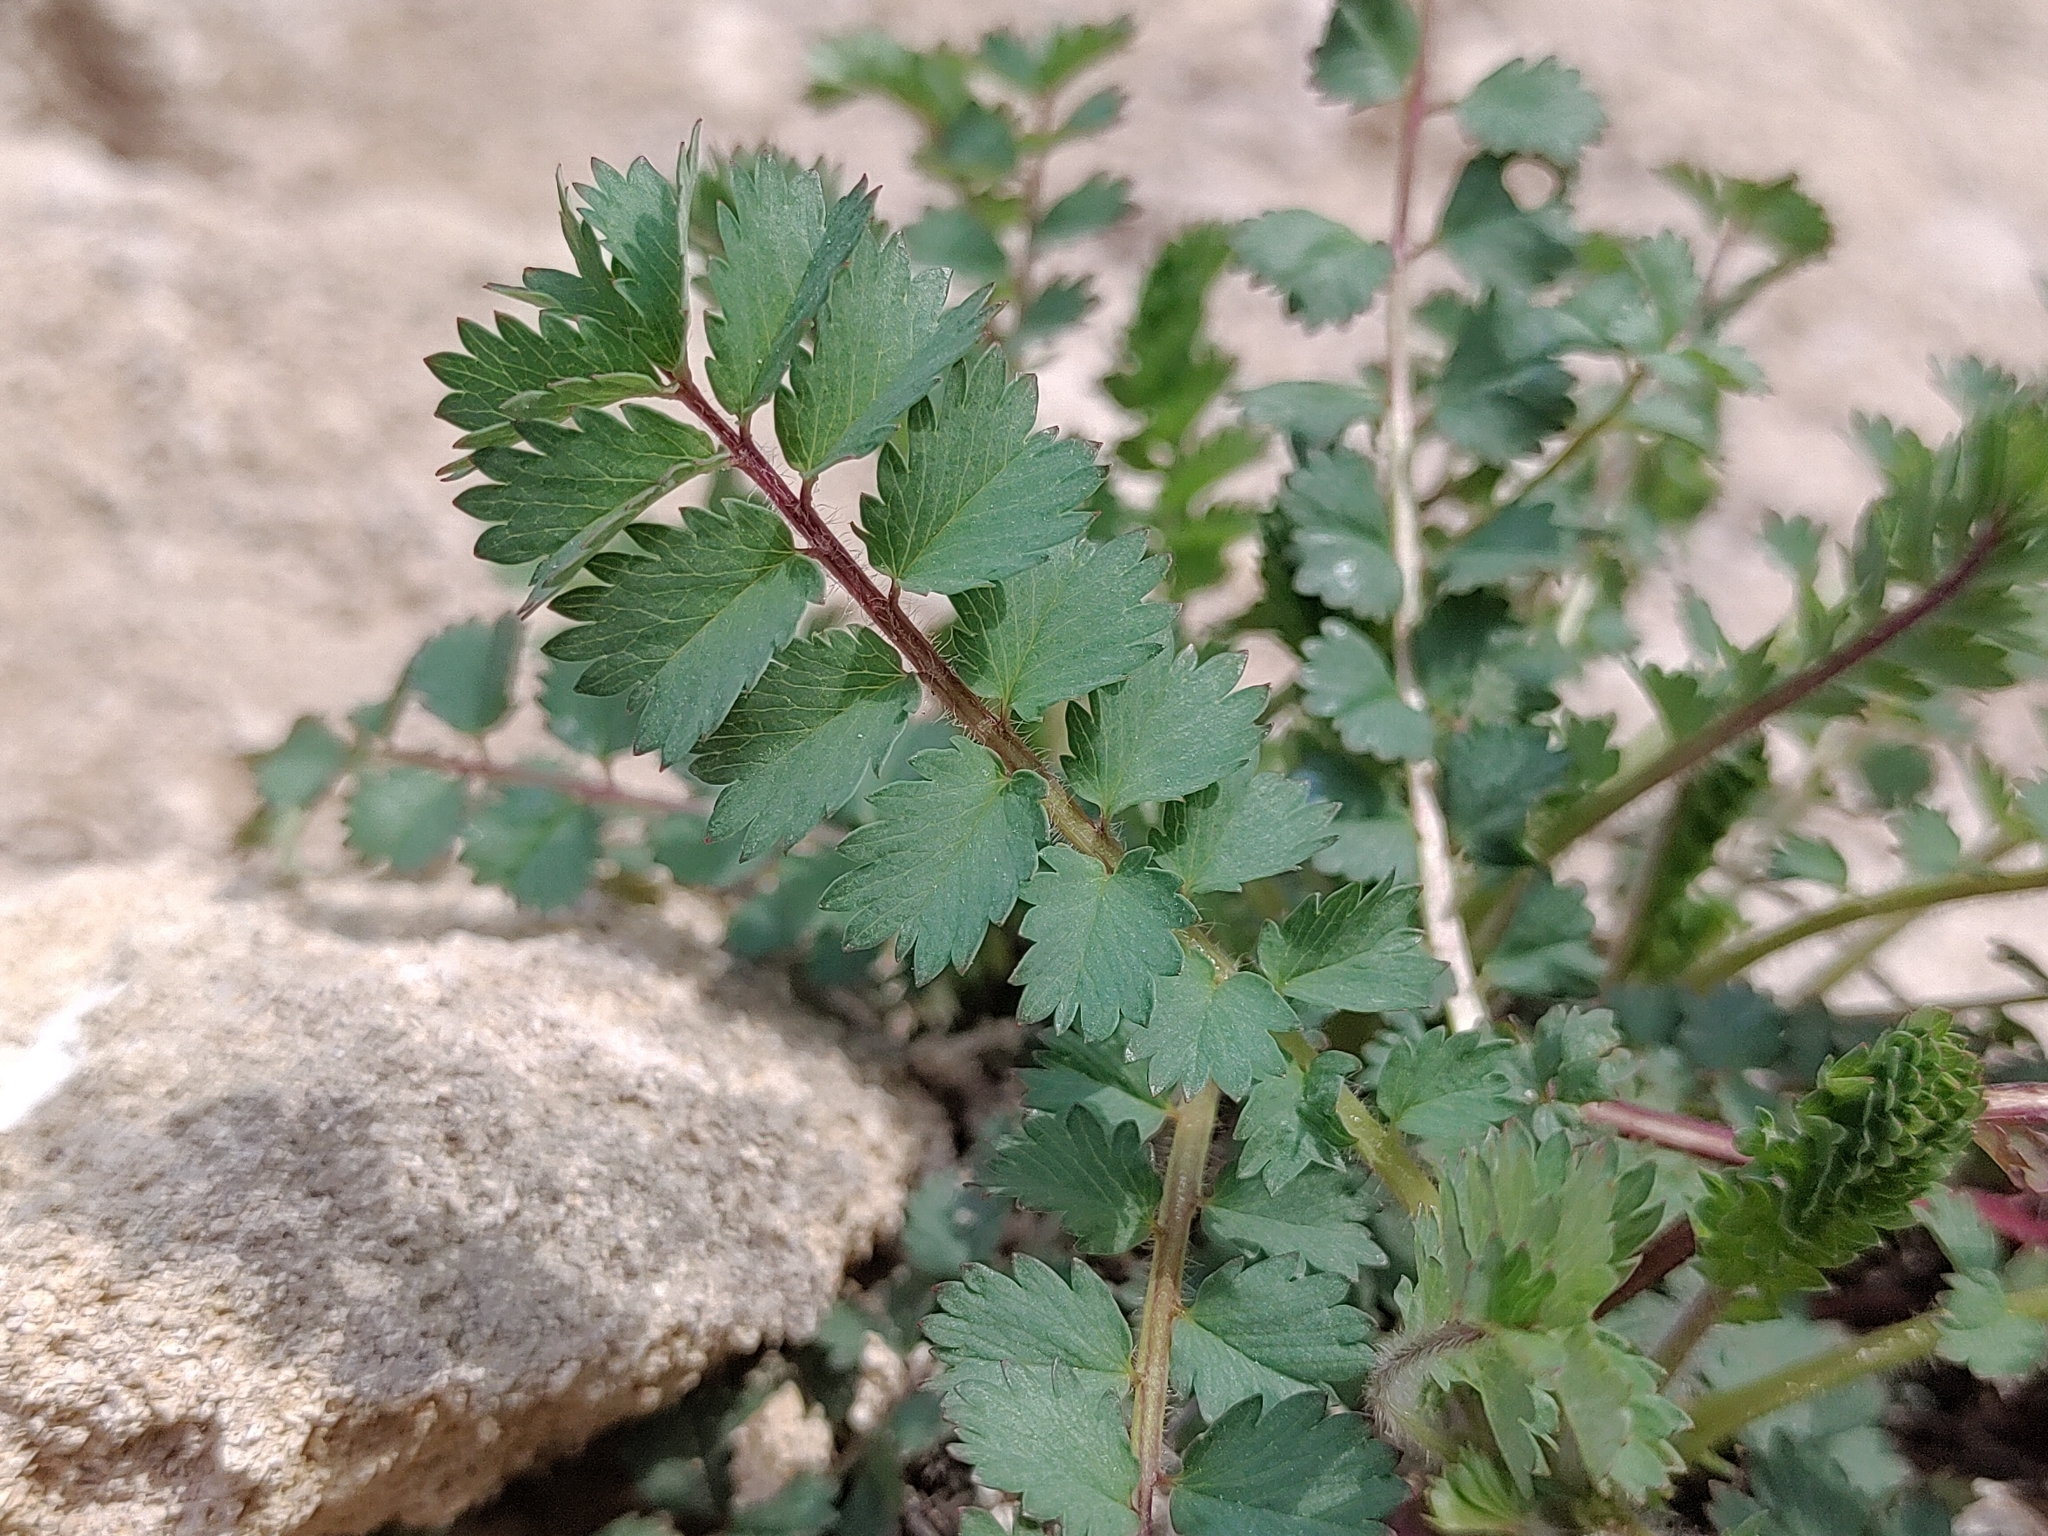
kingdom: Plantae
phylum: Tracheophyta
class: Magnoliopsida
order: Rosales
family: Rosaceae
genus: Poterium
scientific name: Poterium sanguisorba
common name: Salad burnet
